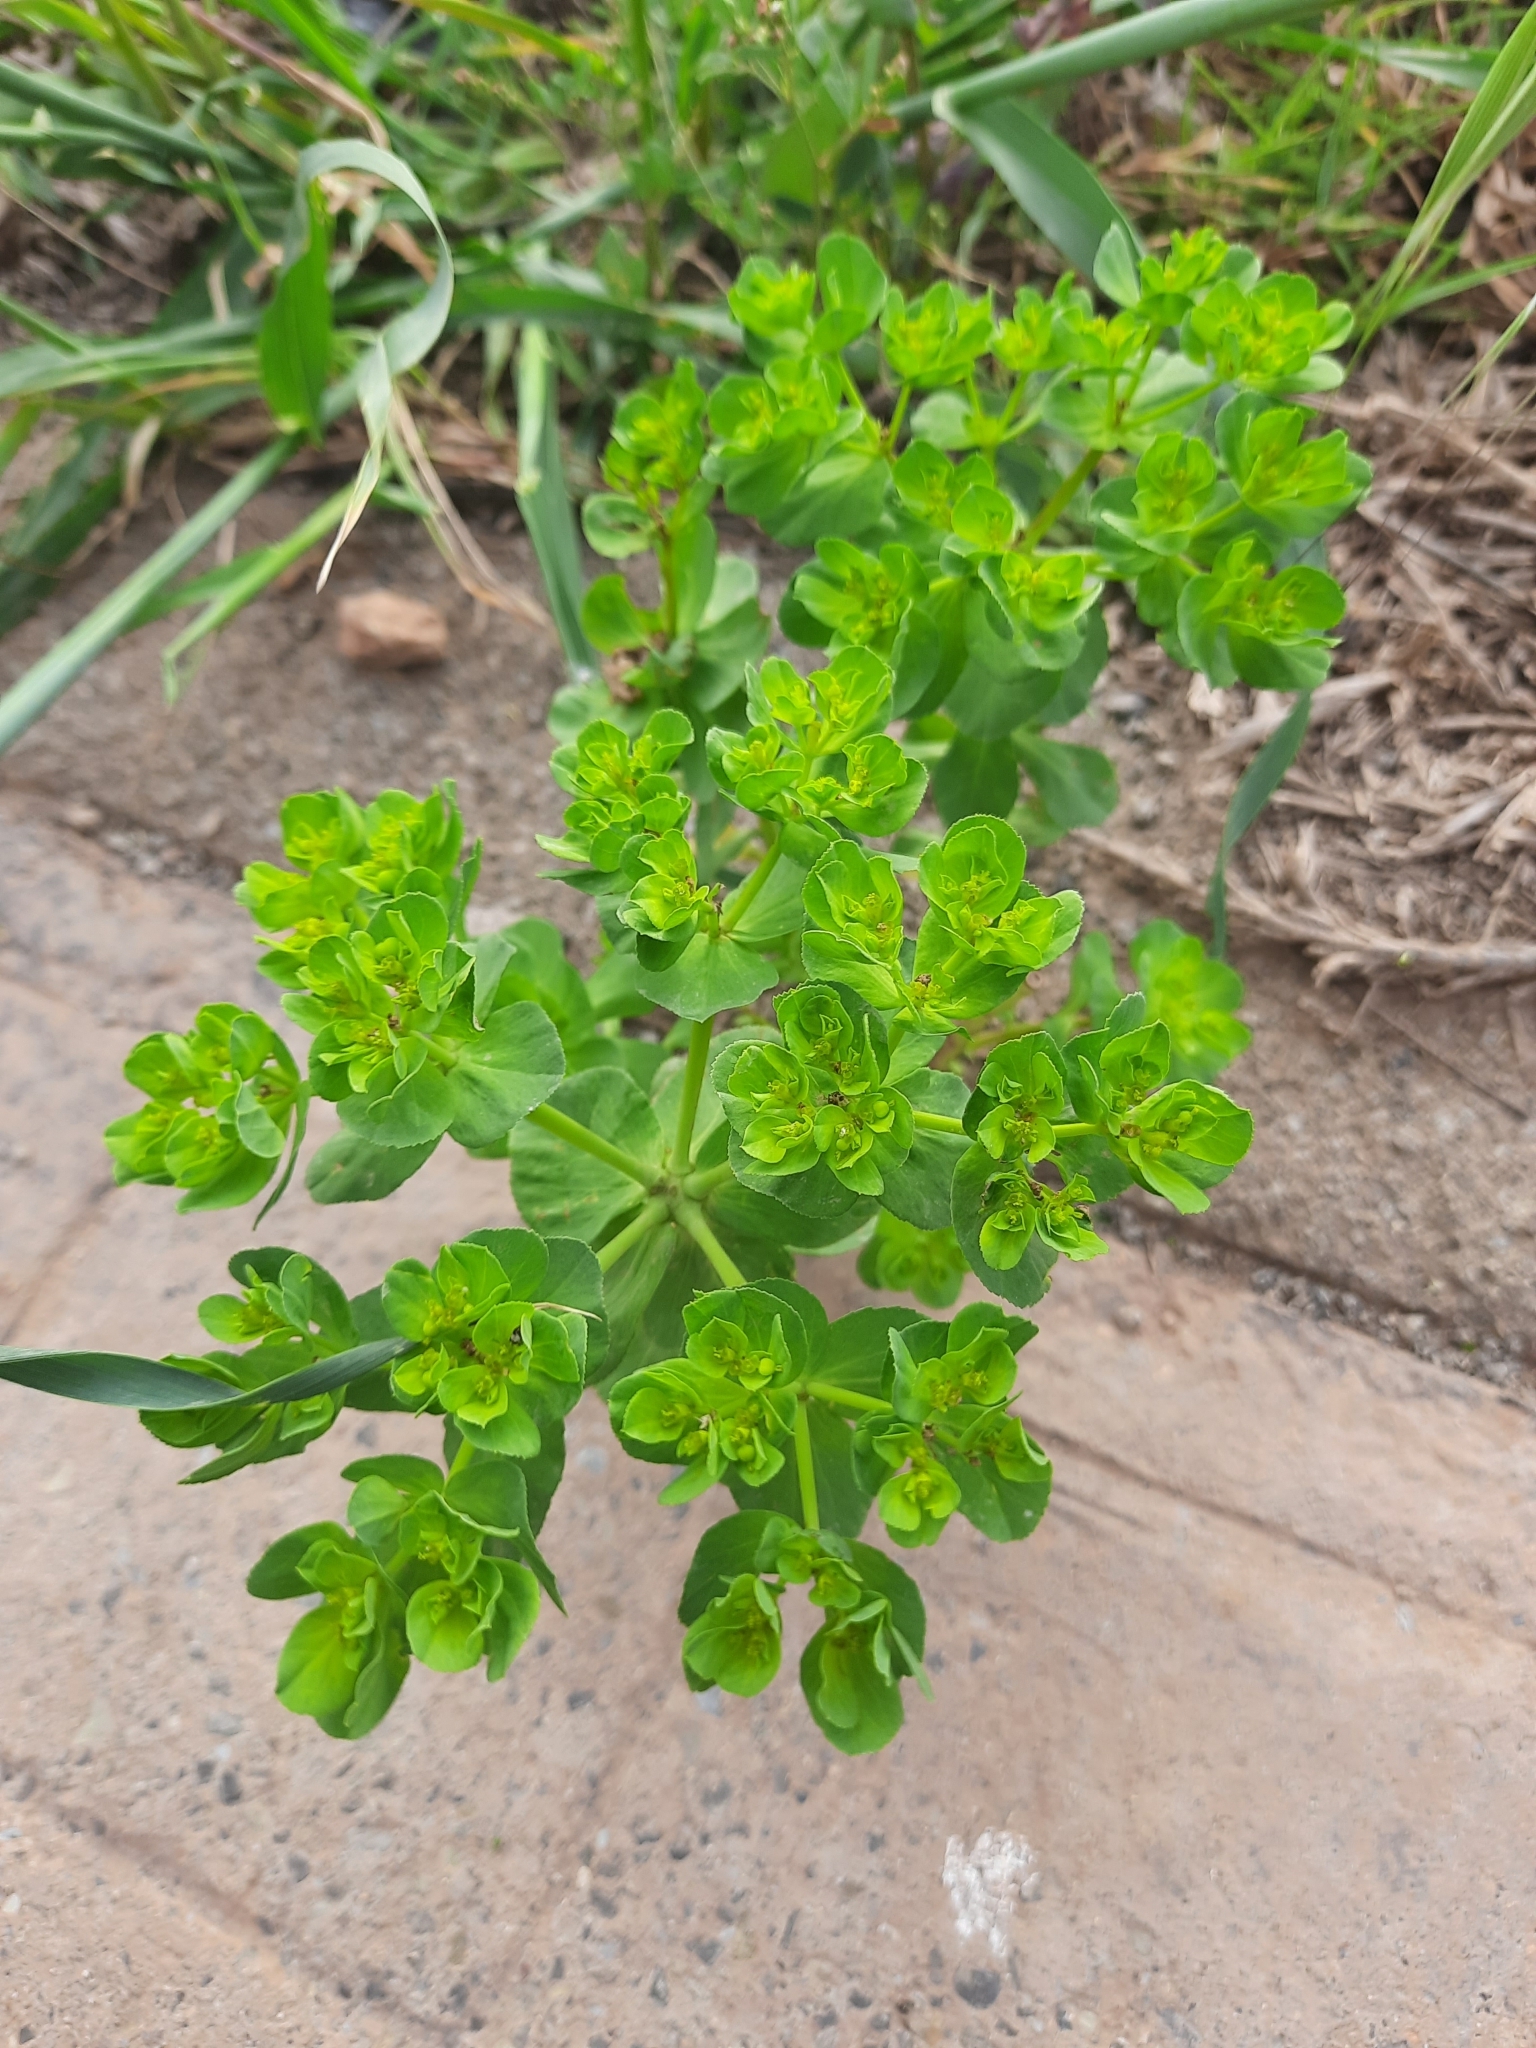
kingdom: Plantae
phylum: Tracheophyta
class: Magnoliopsida
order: Malpighiales
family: Euphorbiaceae
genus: Euphorbia
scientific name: Euphorbia helioscopia
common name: Sun spurge
